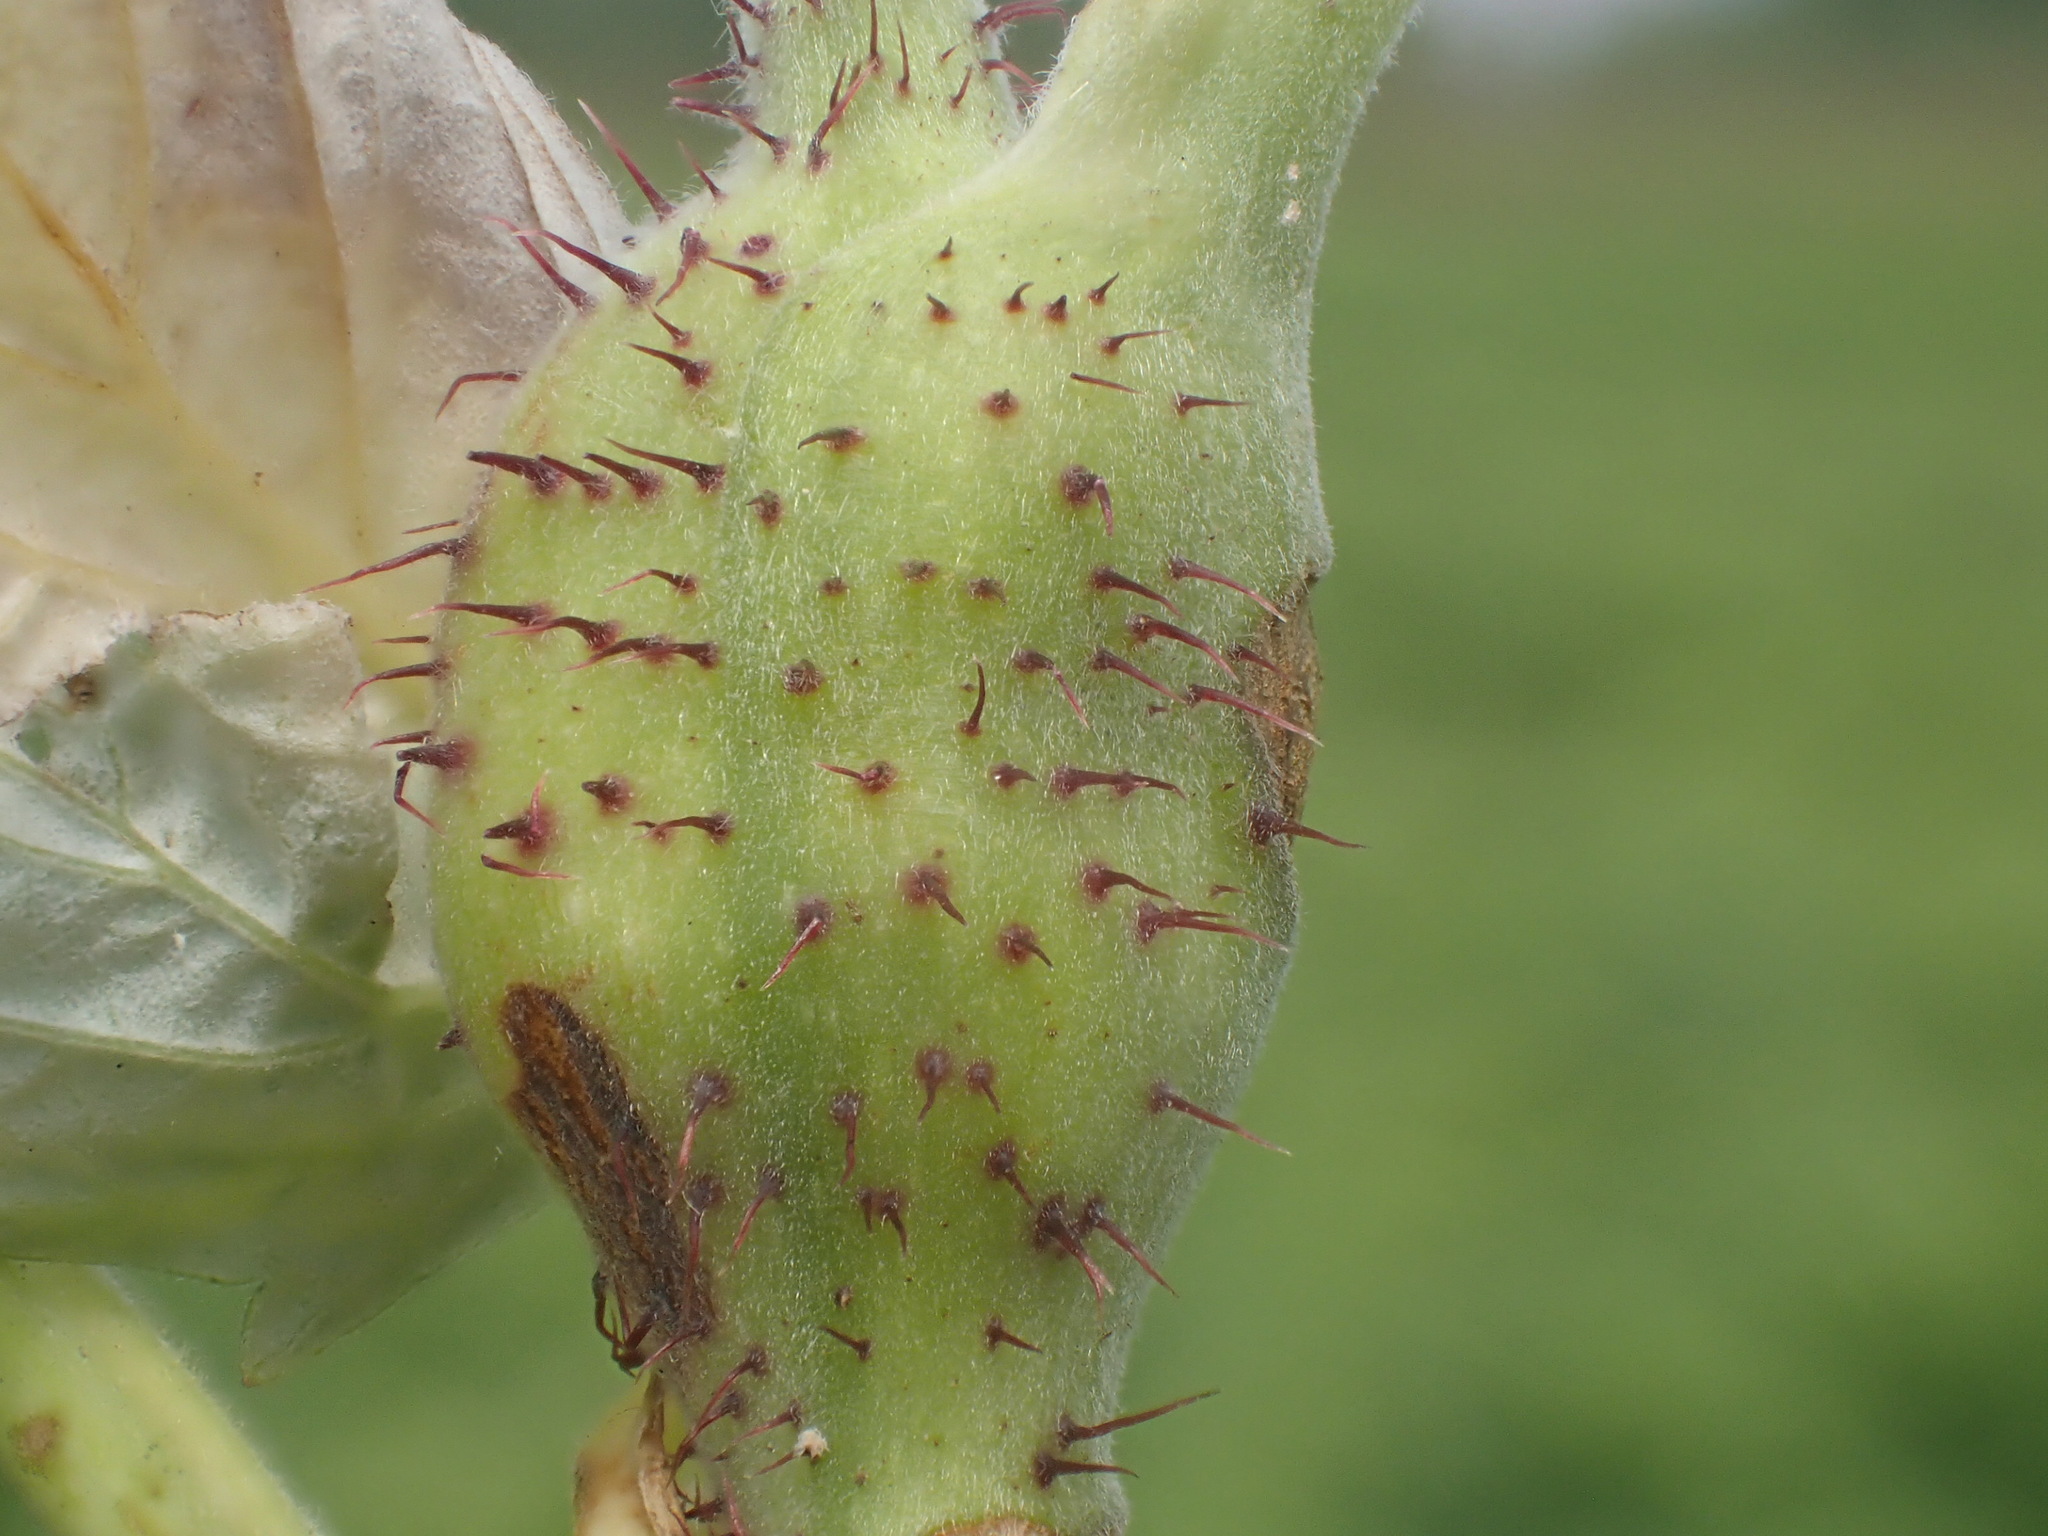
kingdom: Animalia
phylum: Arthropoda
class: Insecta
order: Diptera
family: Cecidomyiidae
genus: Lasioptera
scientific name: Lasioptera rubi
